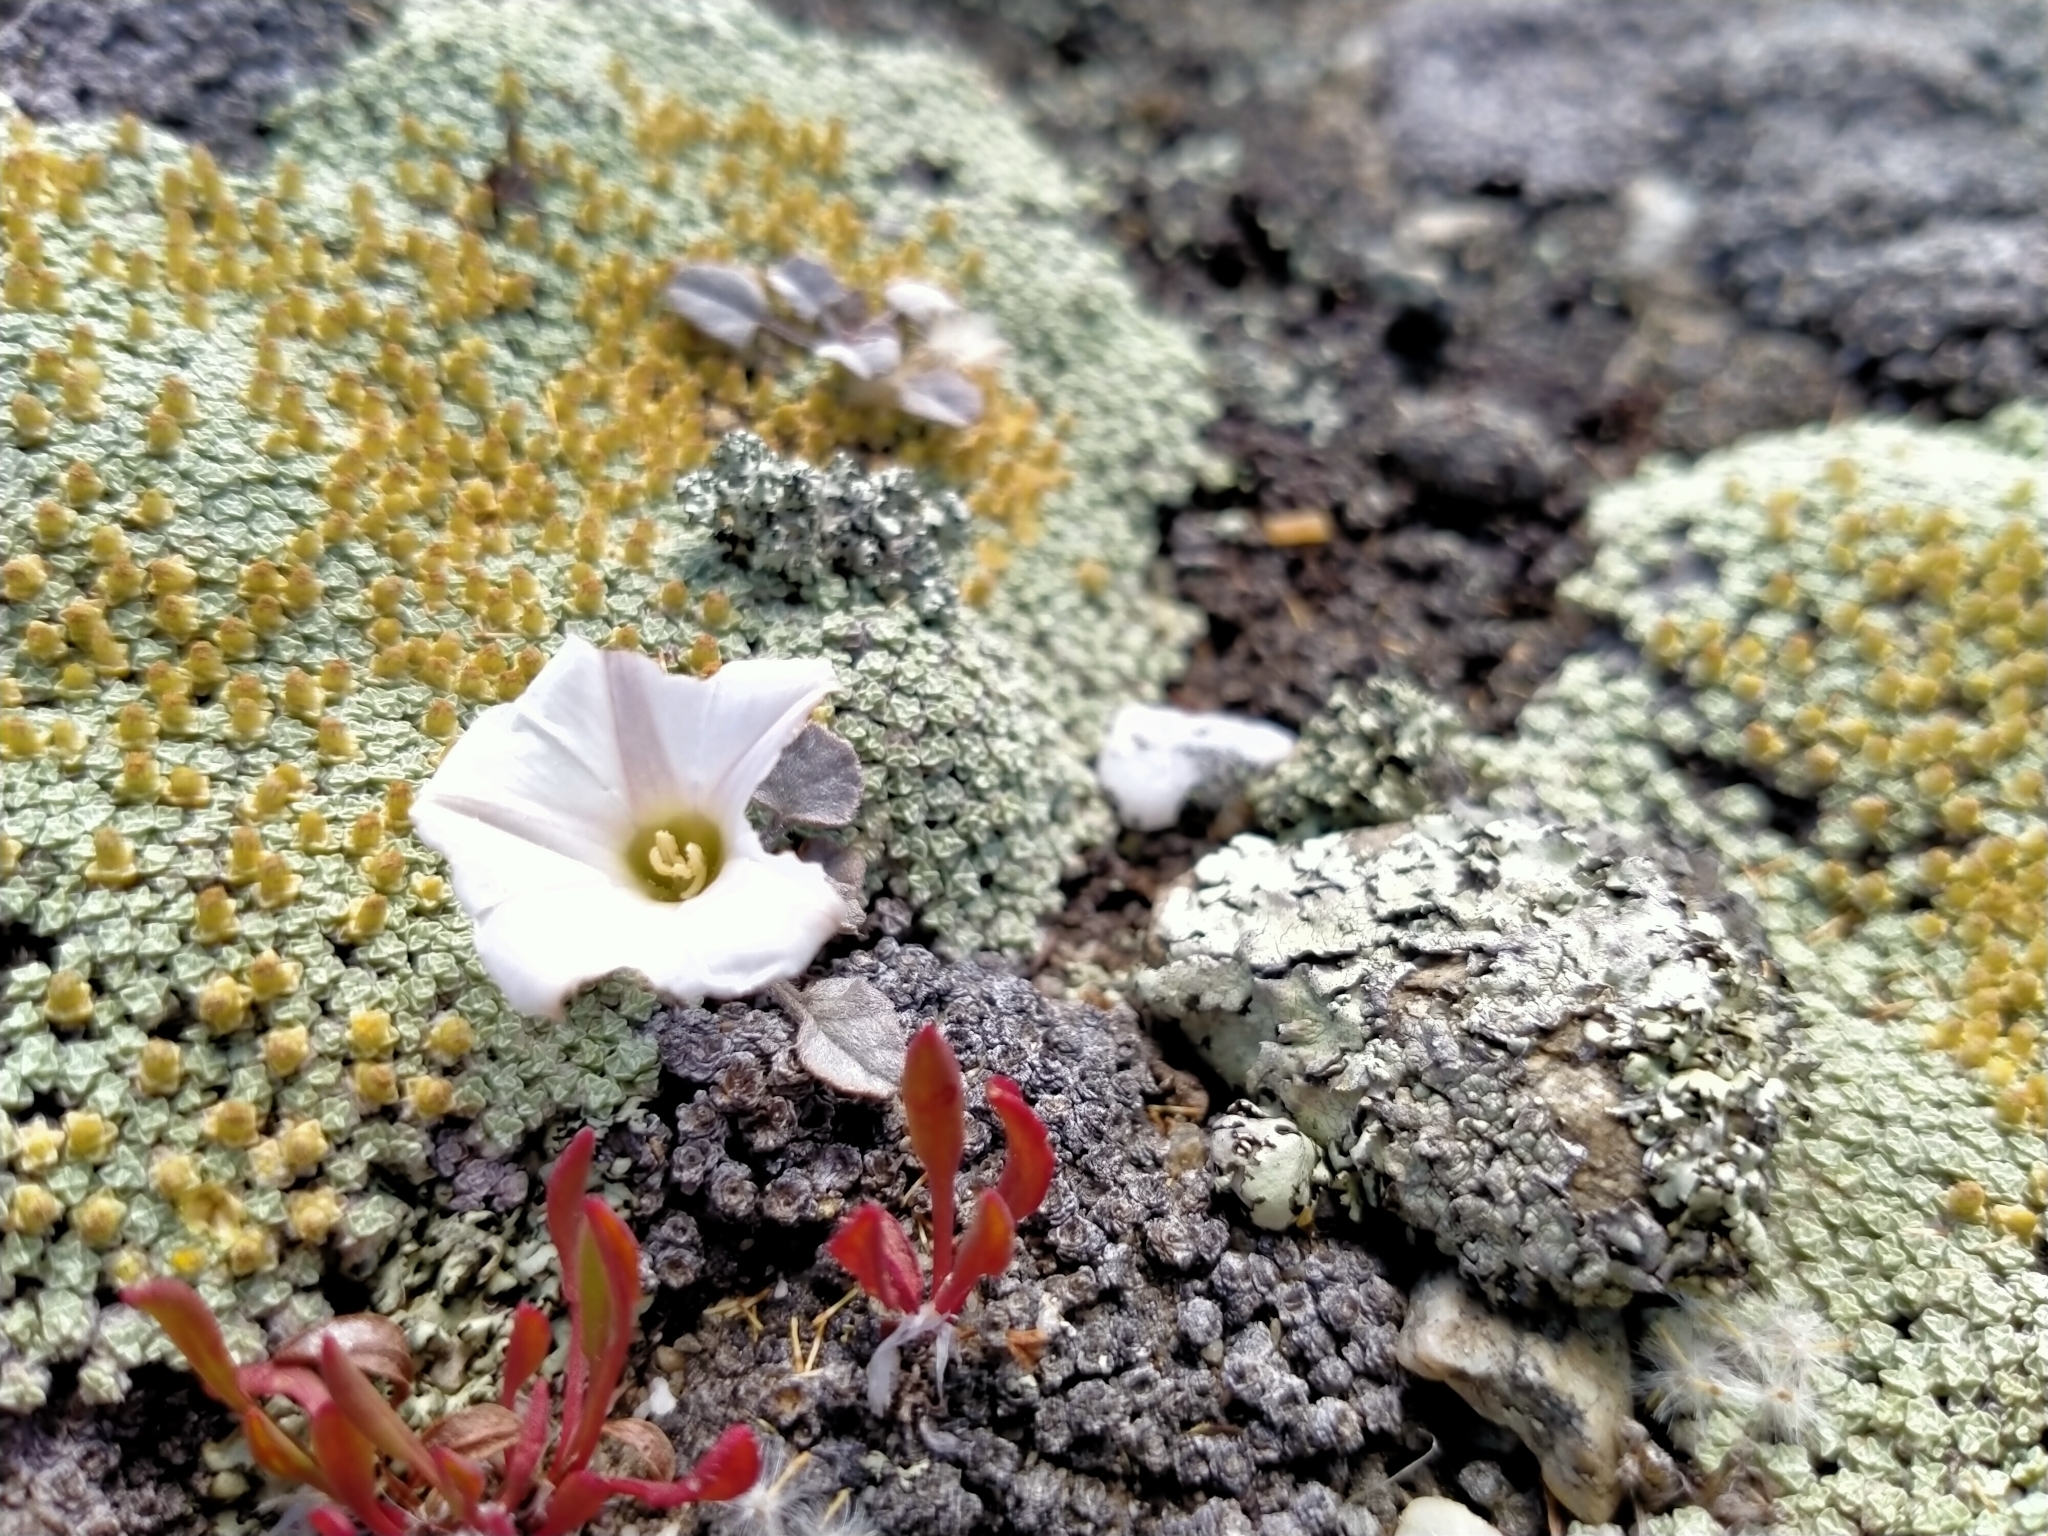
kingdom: Plantae
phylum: Tracheophyta
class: Magnoliopsida
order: Solanales
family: Convolvulaceae
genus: Convolvulus
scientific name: Convolvulus verecundus
